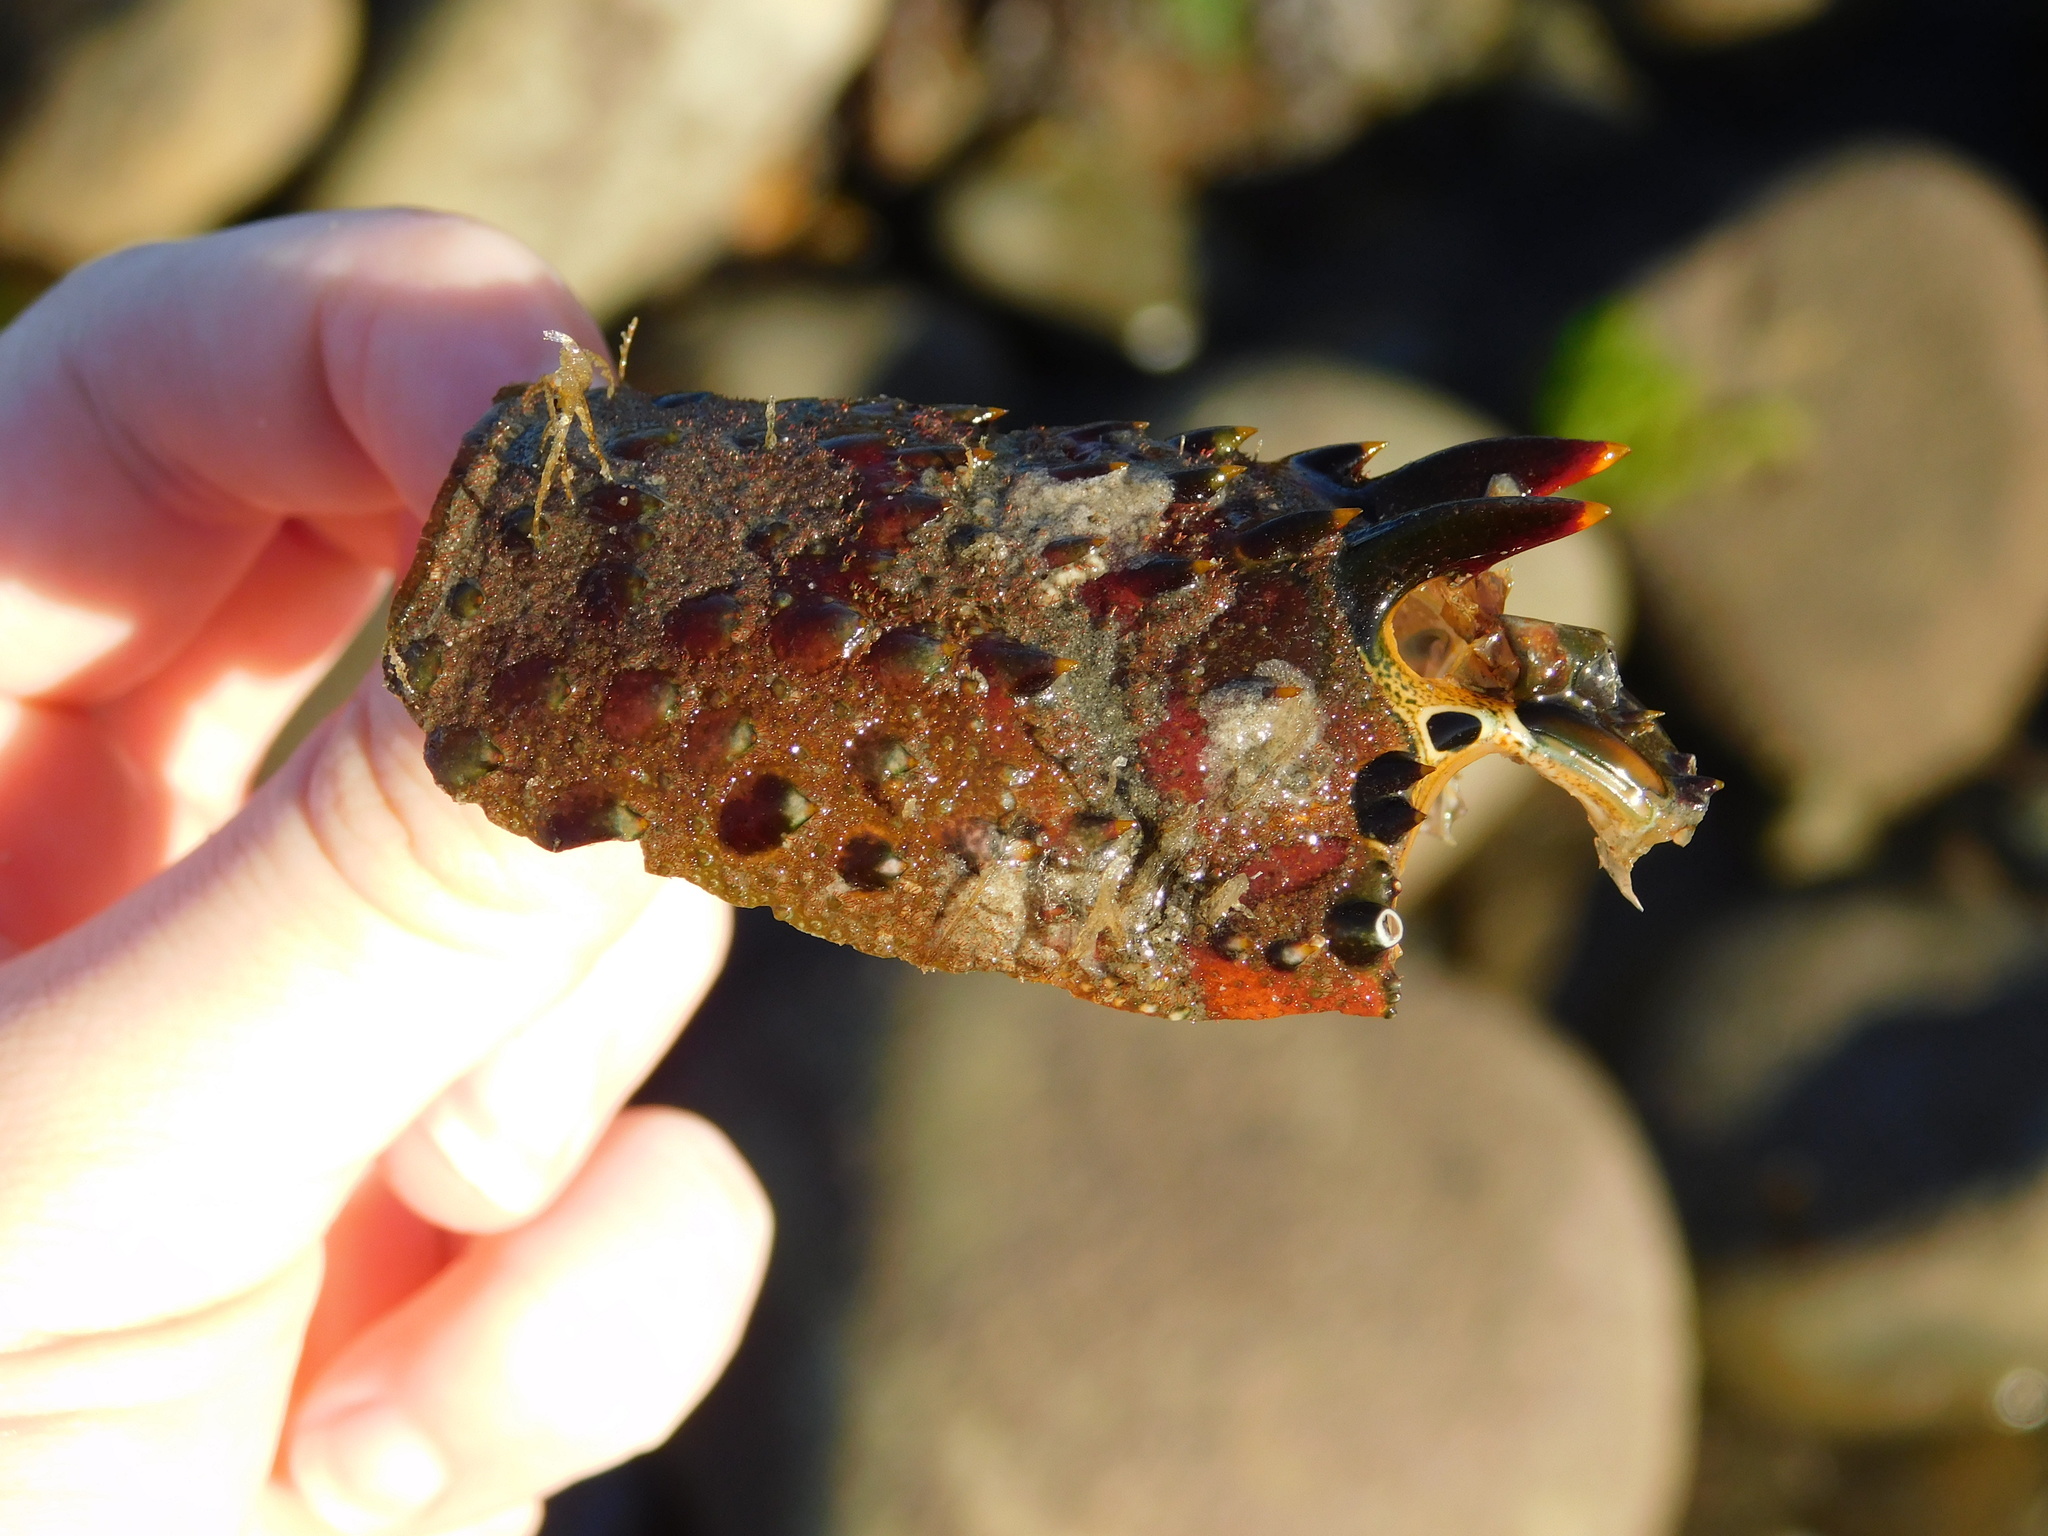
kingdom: Animalia
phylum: Arthropoda
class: Malacostraca
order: Decapoda
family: Palinuridae
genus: Panulirus
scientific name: Panulirus interruptus
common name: California spiny lobster
